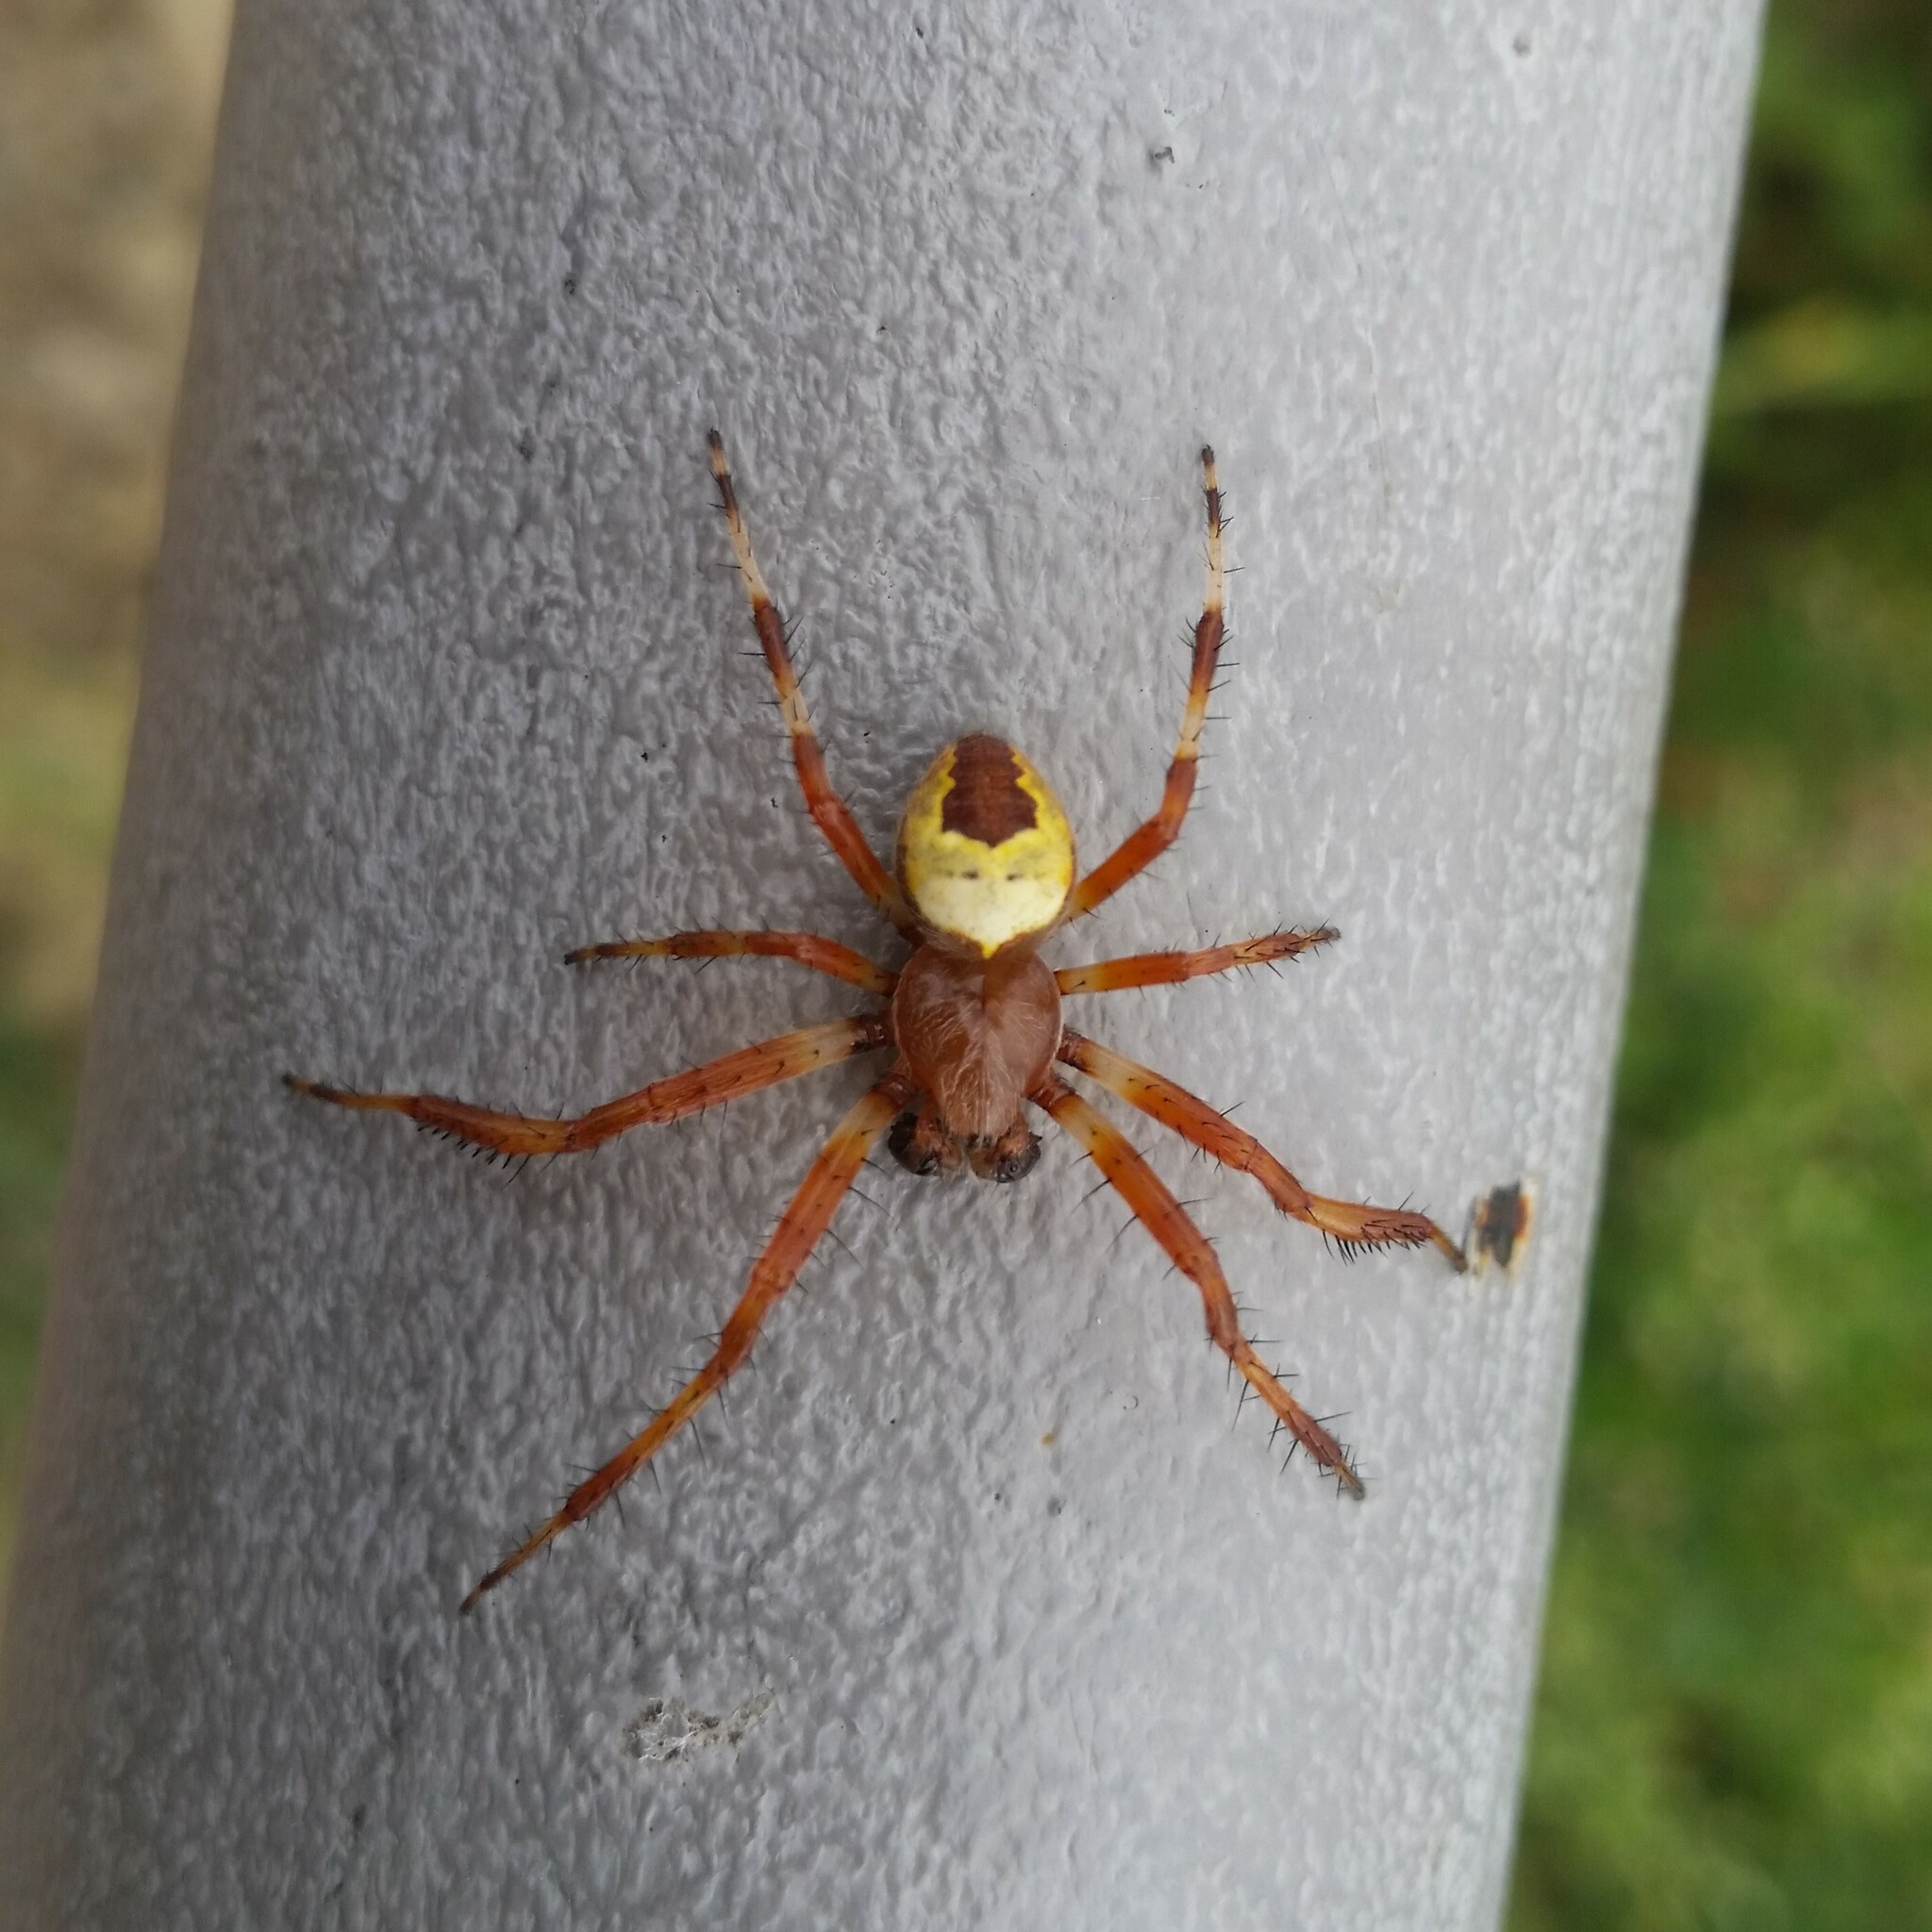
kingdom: Animalia
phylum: Arthropoda
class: Arachnida
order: Araneae
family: Araneidae
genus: Araneus
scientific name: Araneus marmoreus
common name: Marbled orbweaver
